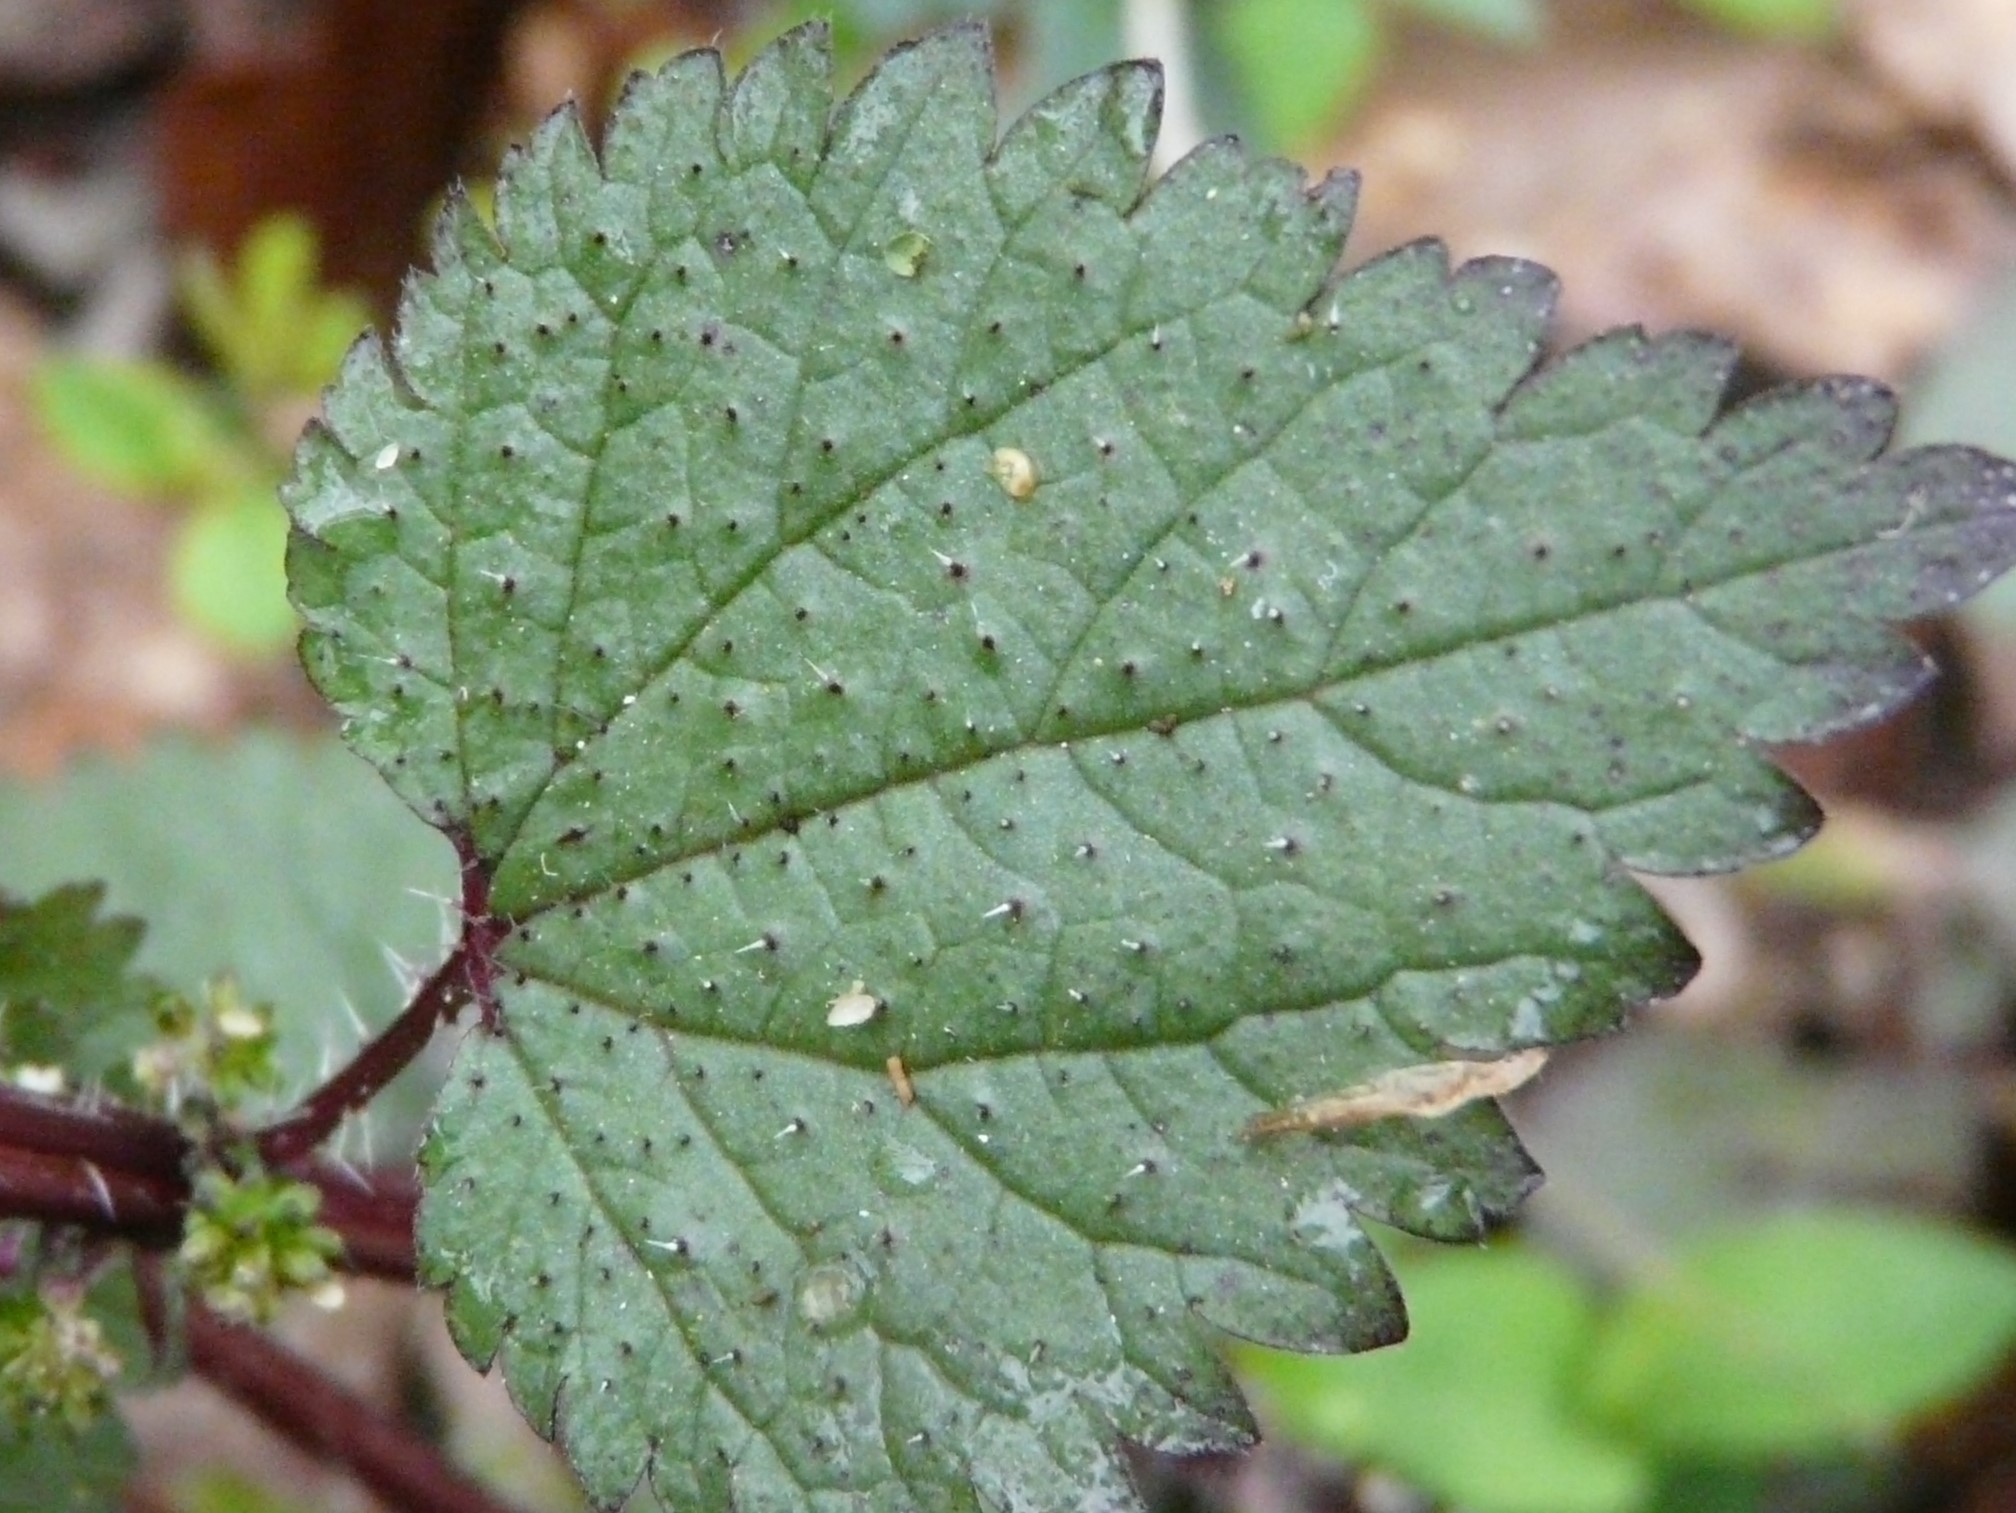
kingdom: Plantae
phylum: Tracheophyta
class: Magnoliopsida
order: Rosales
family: Urticaceae
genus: Urtica
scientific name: Urtica chamaedryoides
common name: Heart-leaf nettle
